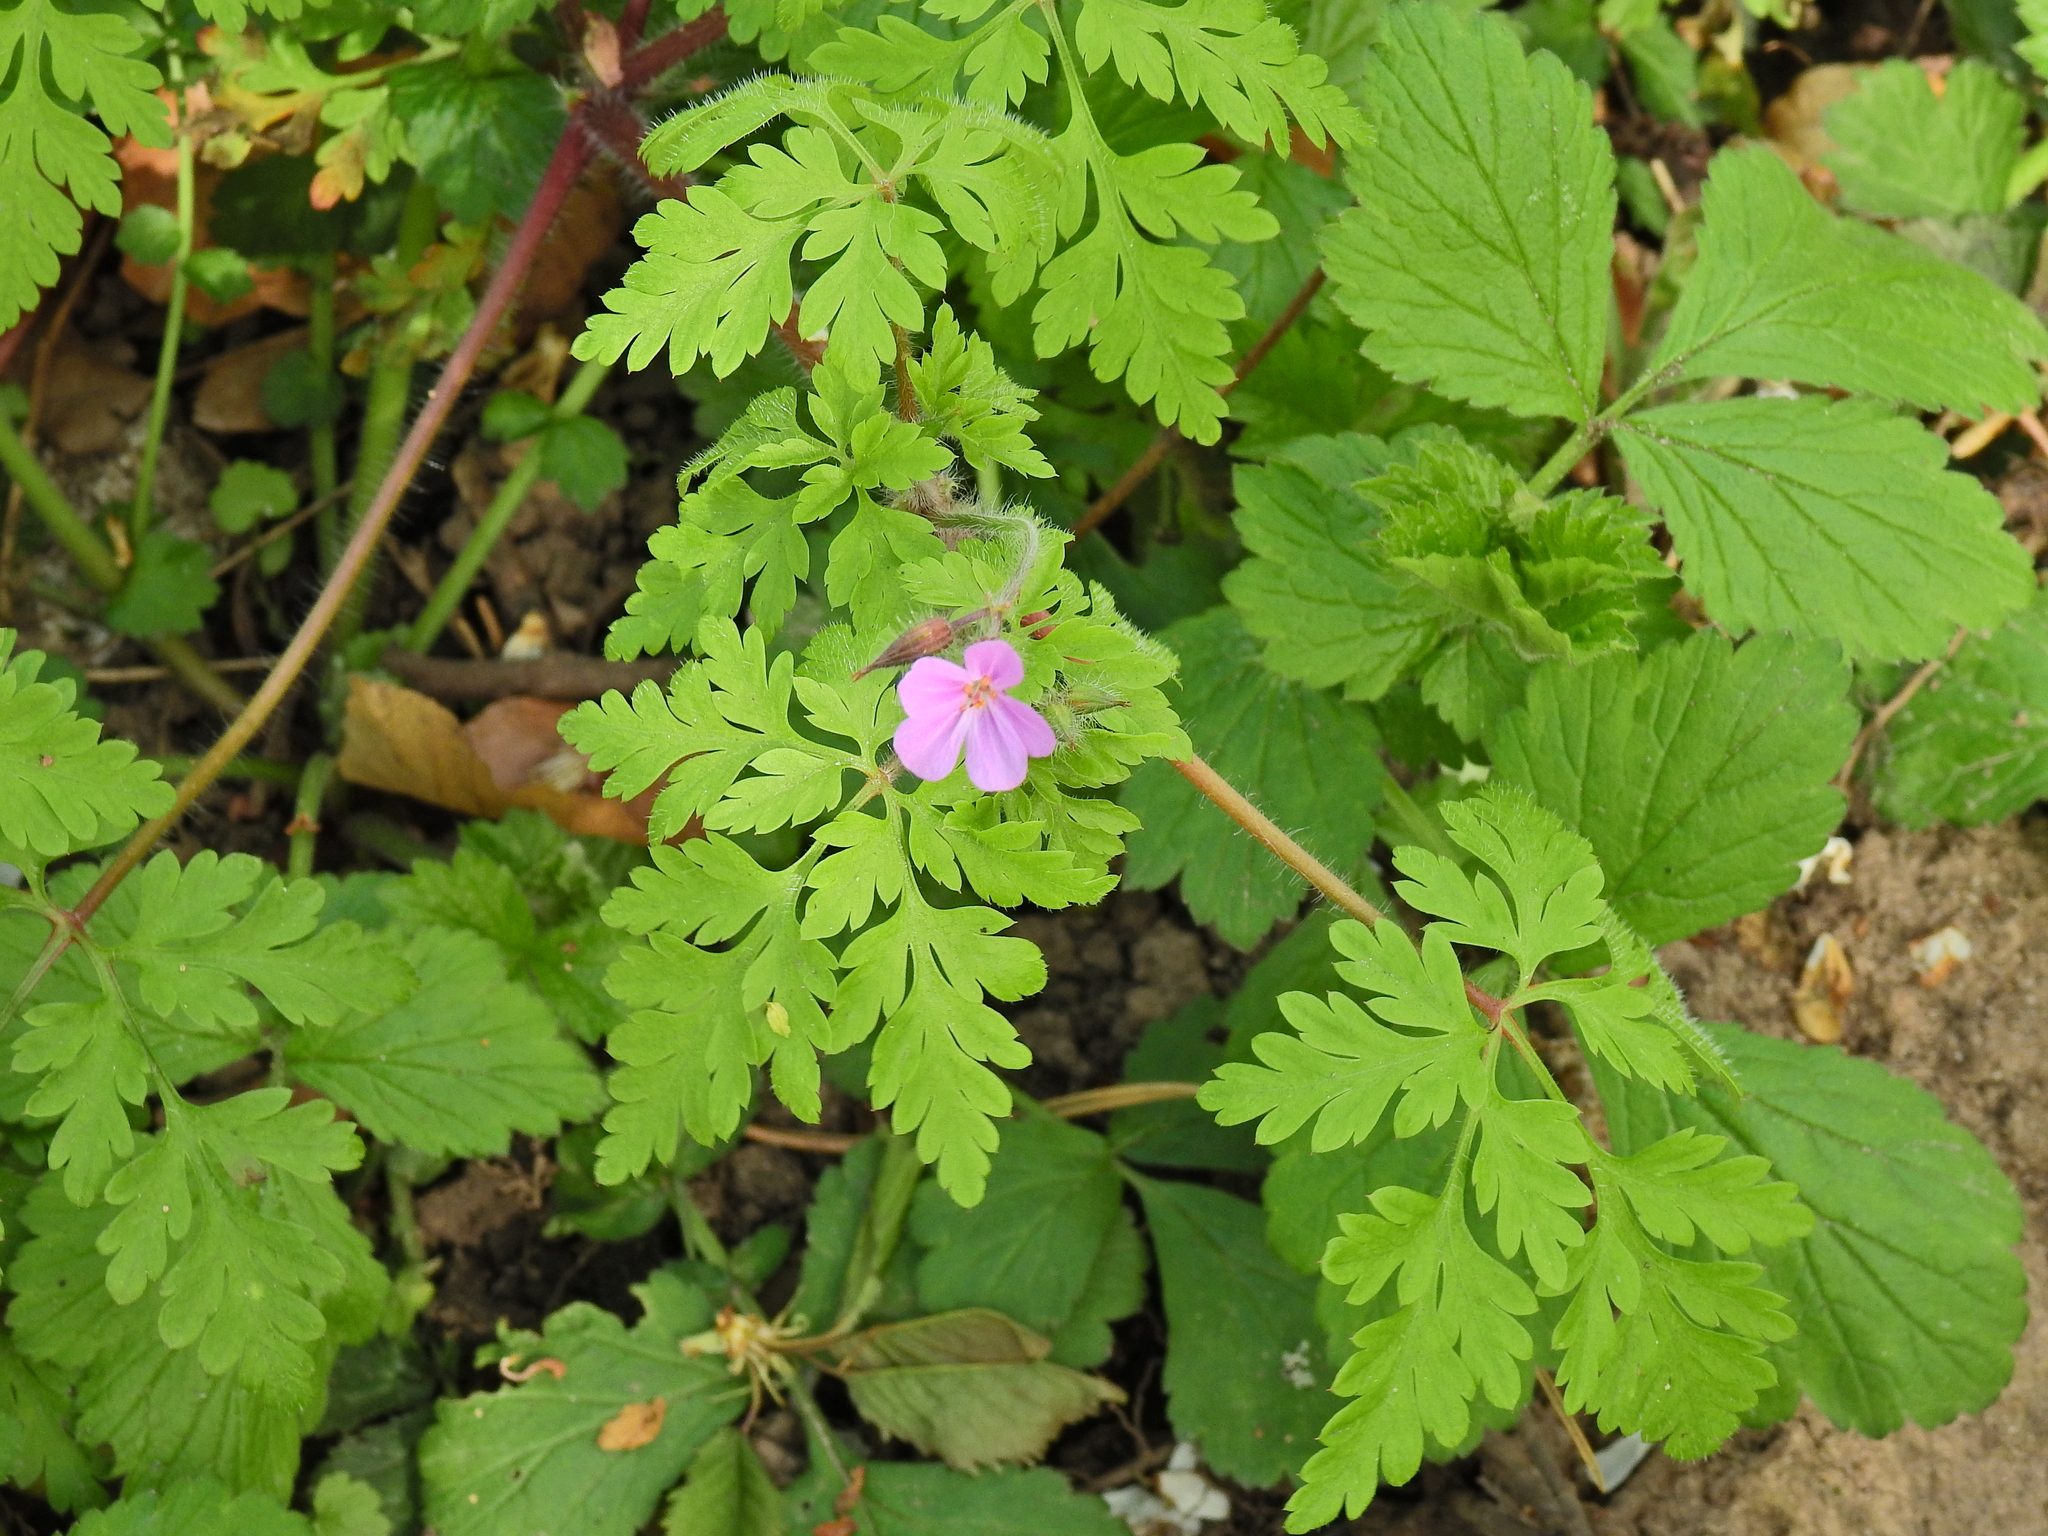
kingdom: Plantae
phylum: Tracheophyta
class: Magnoliopsida
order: Geraniales
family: Geraniaceae
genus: Geranium
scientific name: Geranium robertianum
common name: Herb-robert
